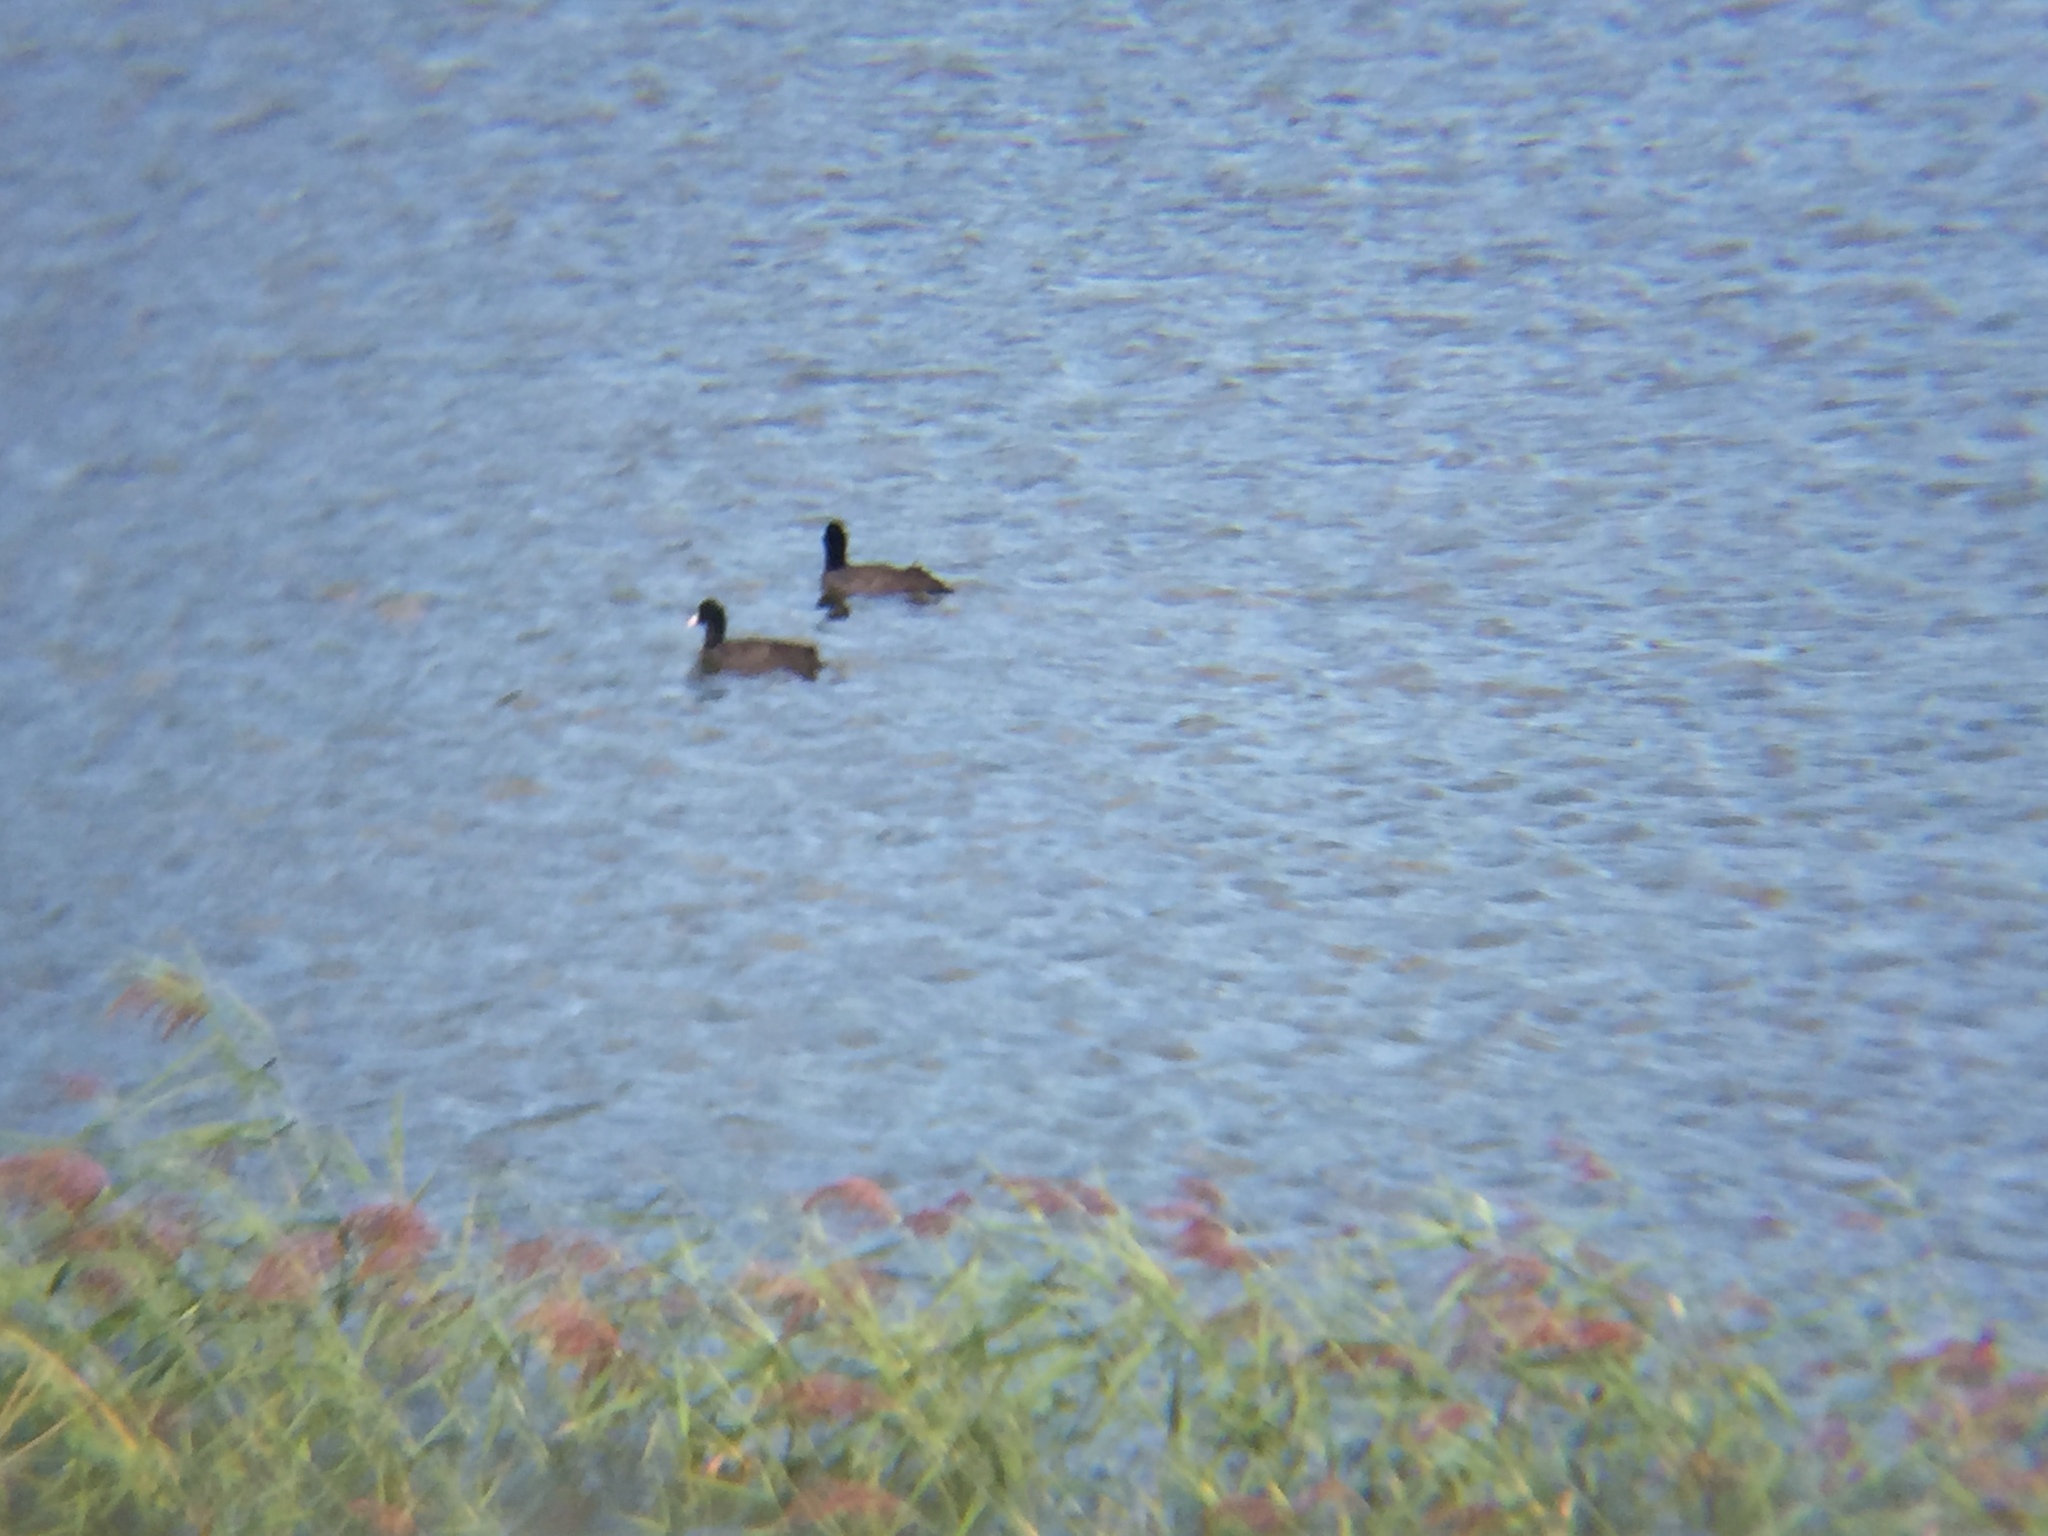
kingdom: Animalia
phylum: Chordata
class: Aves
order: Gruiformes
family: Rallidae
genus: Fulica
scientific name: Fulica atra
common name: Eurasian coot
